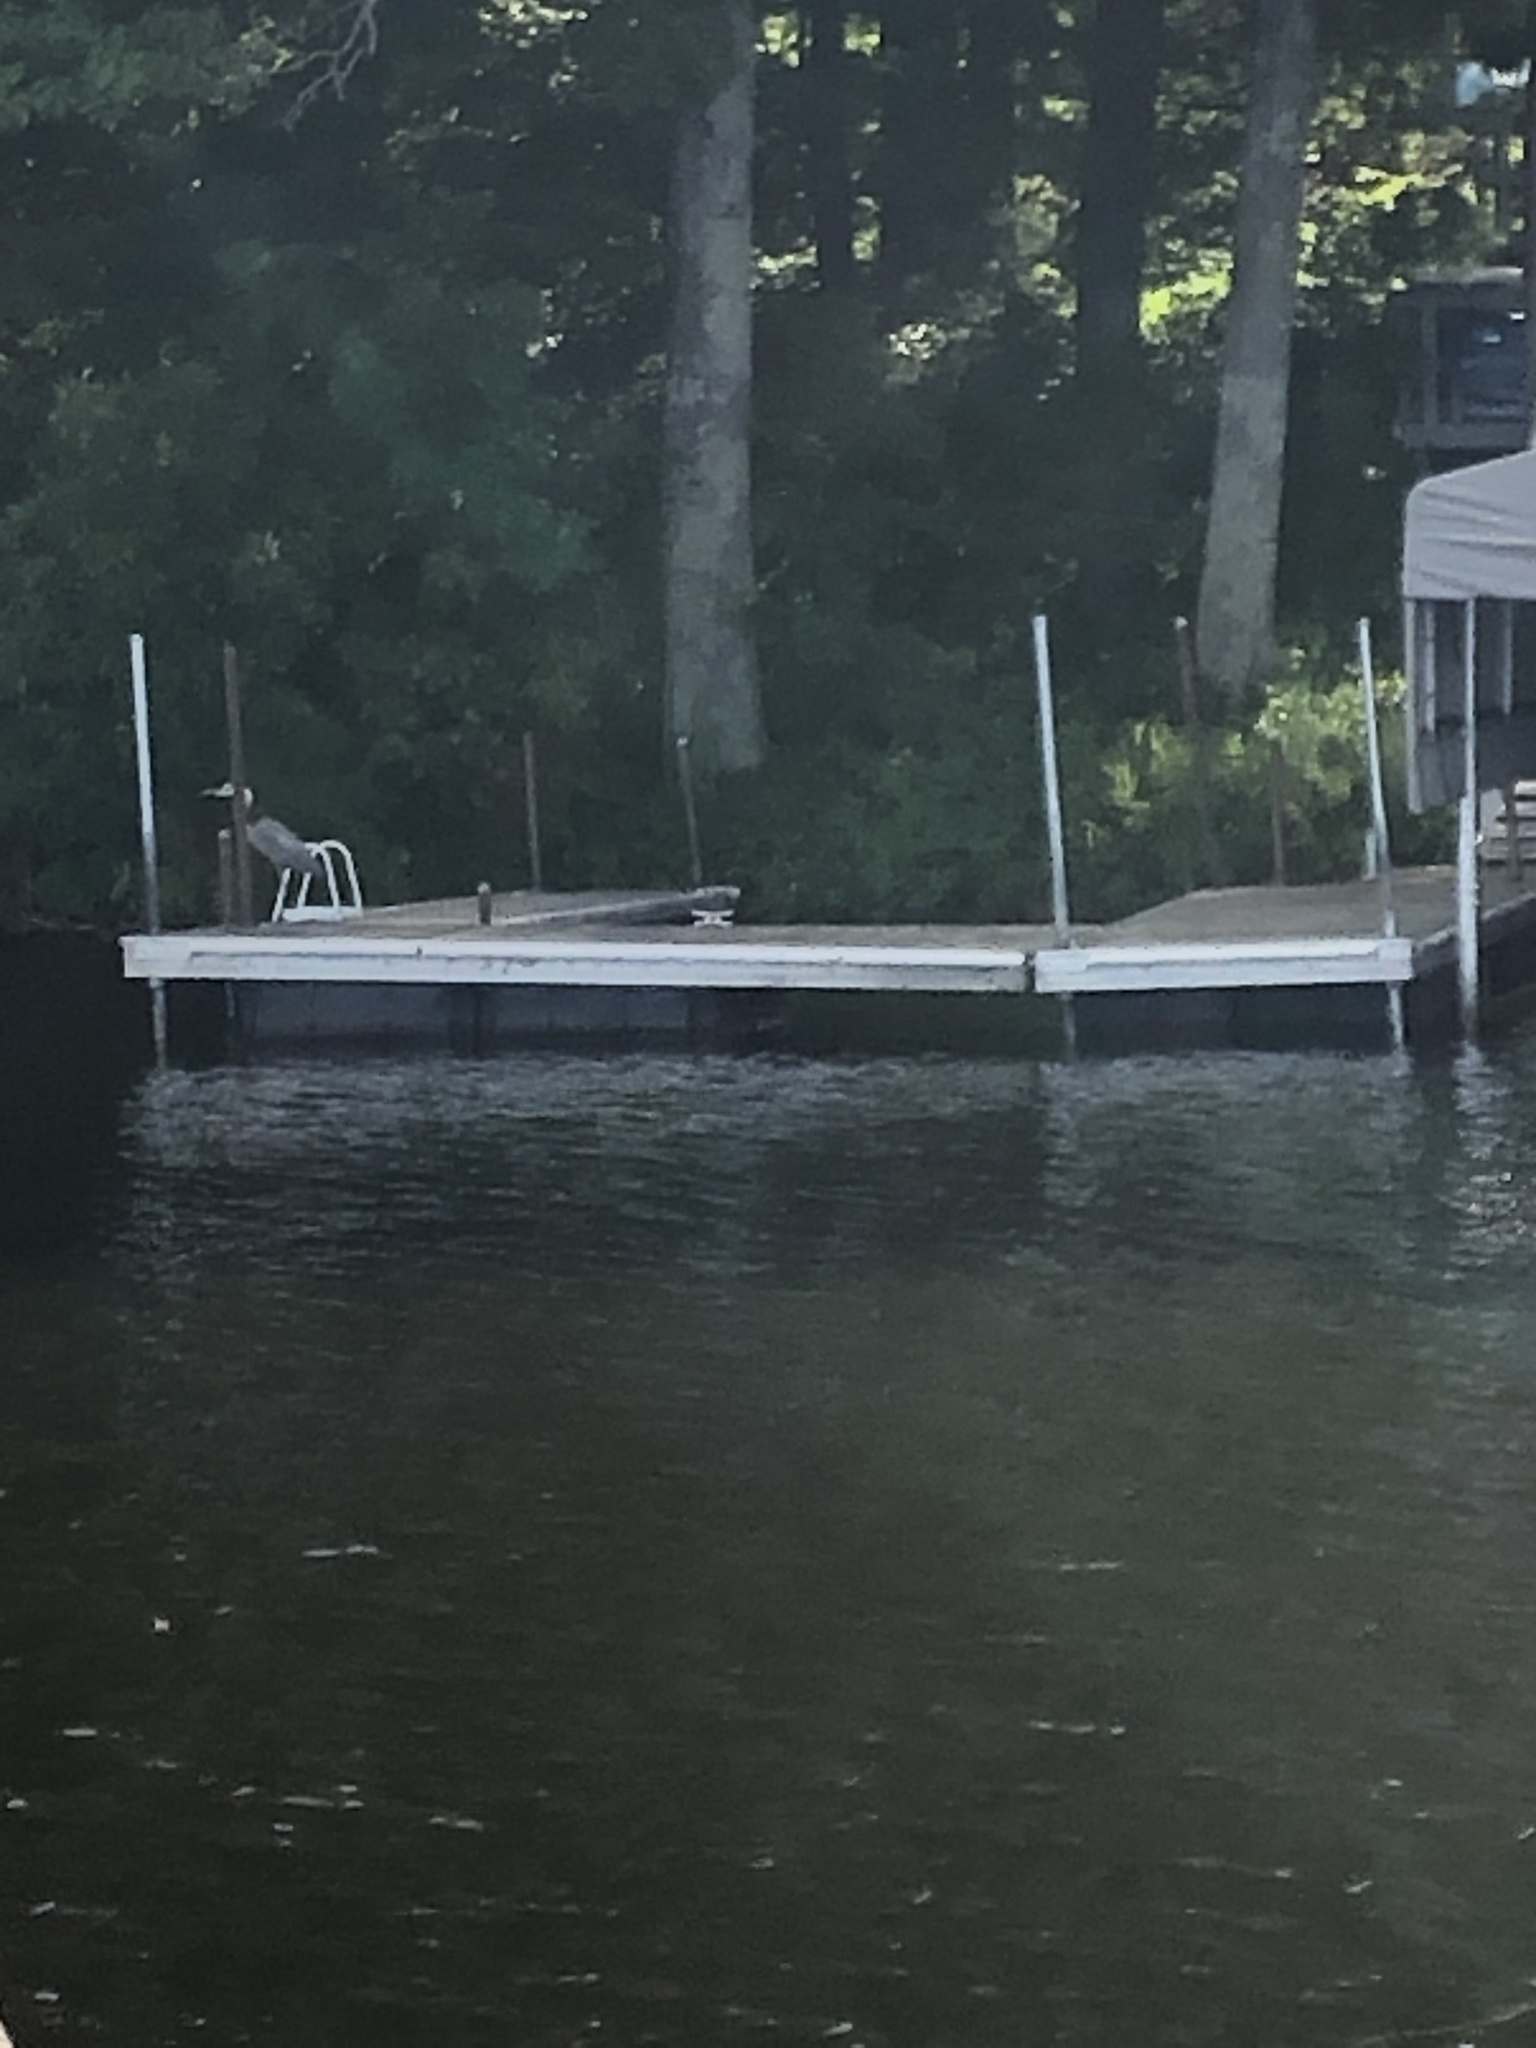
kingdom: Animalia
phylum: Chordata
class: Aves
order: Pelecaniformes
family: Ardeidae
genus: Ardea
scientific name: Ardea herodias
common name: Great blue heron
